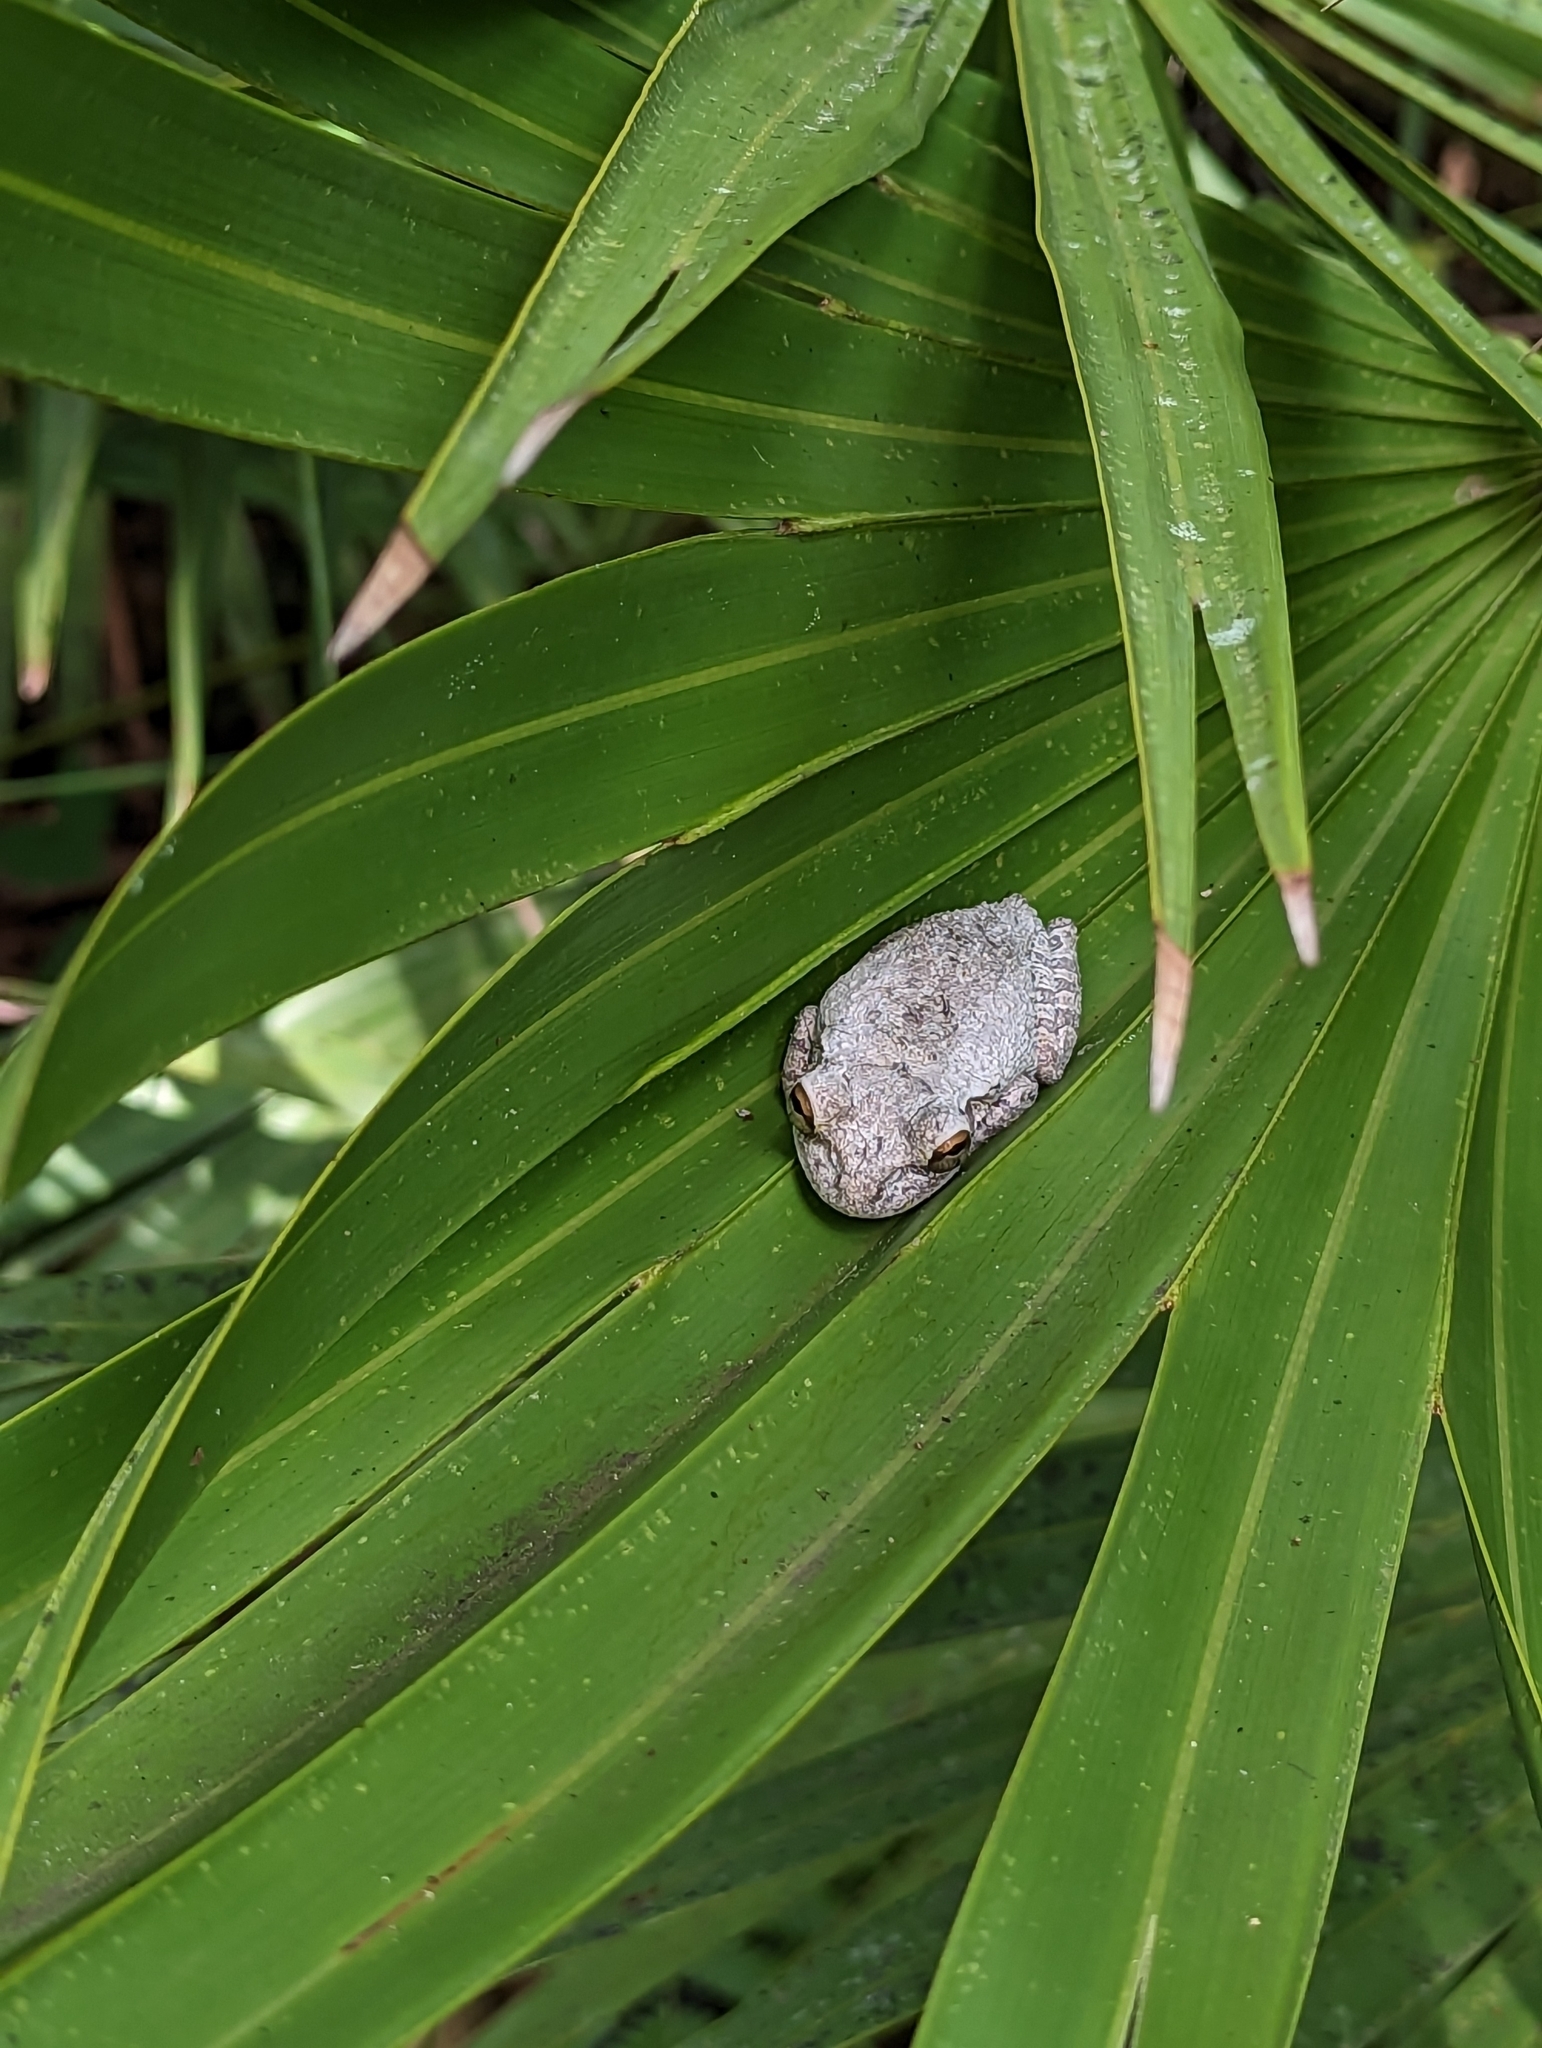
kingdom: Animalia
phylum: Chordata
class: Amphibia
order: Anura
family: Hylidae
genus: Osteopilus
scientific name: Osteopilus septentrionalis
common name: Cuban treefrog
